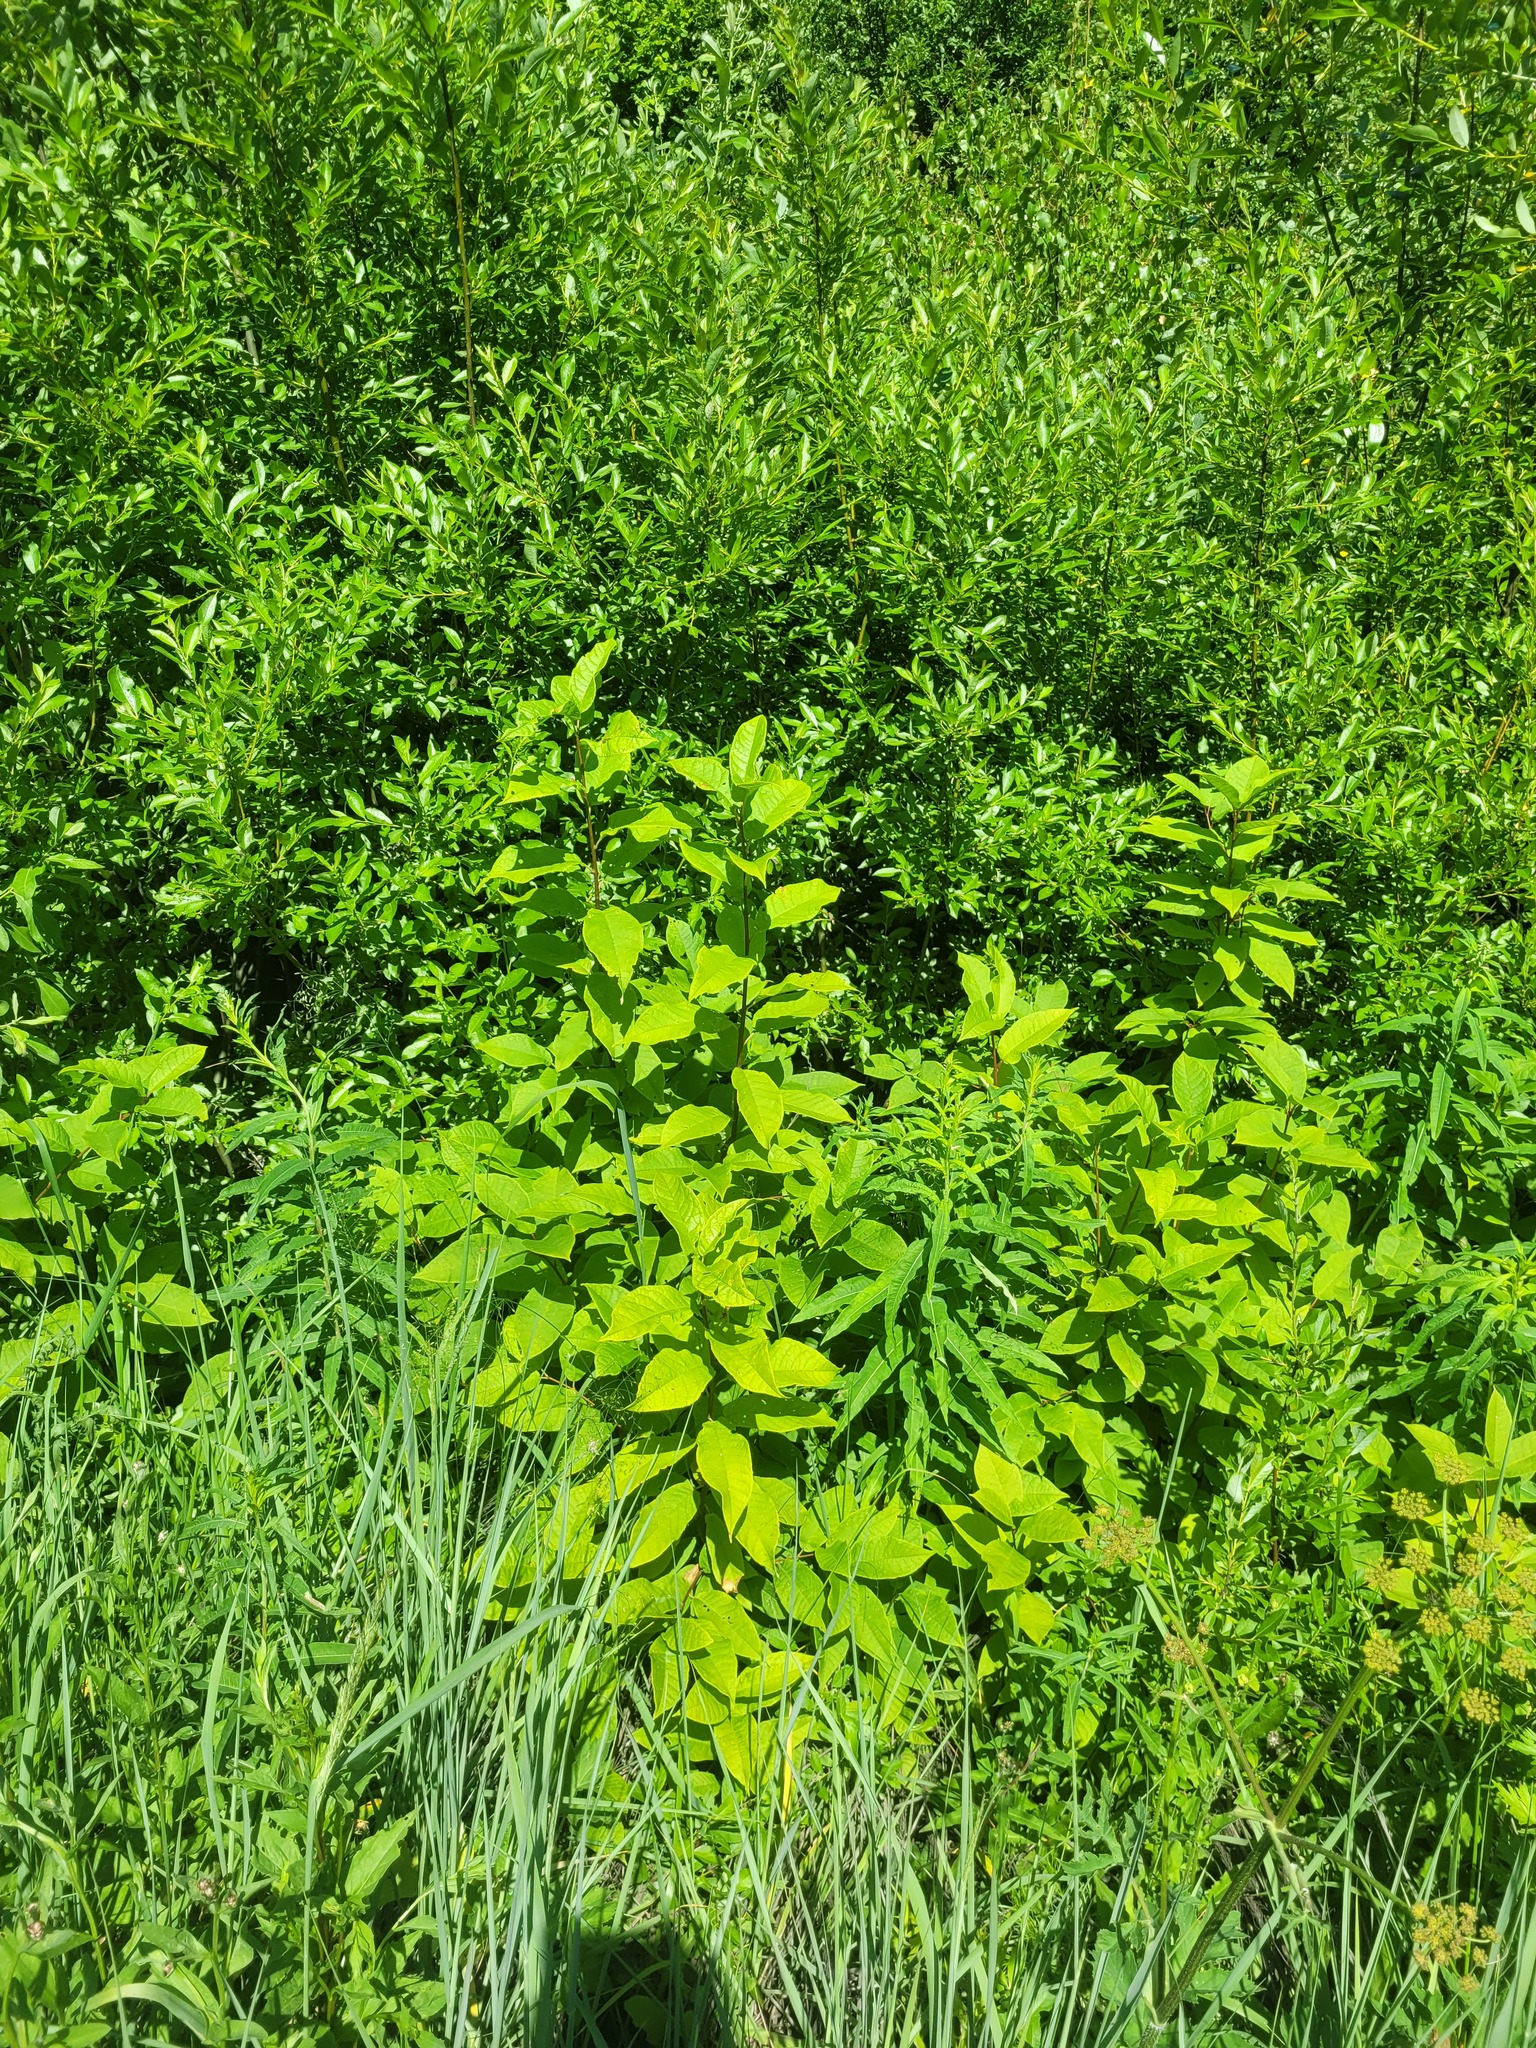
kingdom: Plantae
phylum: Tracheophyta
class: Magnoliopsida
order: Rosales
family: Rosaceae
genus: Prunus
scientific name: Prunus padus
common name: Bird cherry
